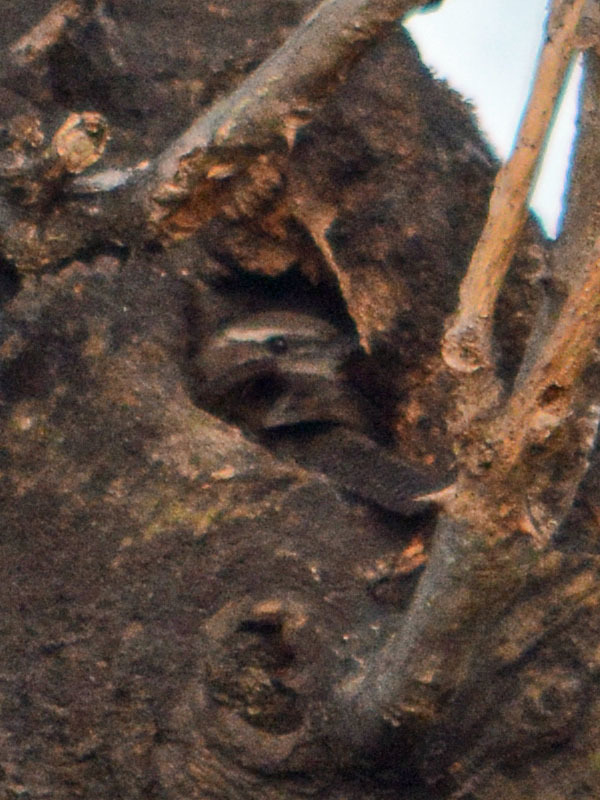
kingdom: Animalia
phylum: Chordata
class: Aves
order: Passeriformes
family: Troglodytidae
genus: Thryomanes
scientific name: Thryomanes bewickii
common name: Bewick's wren
